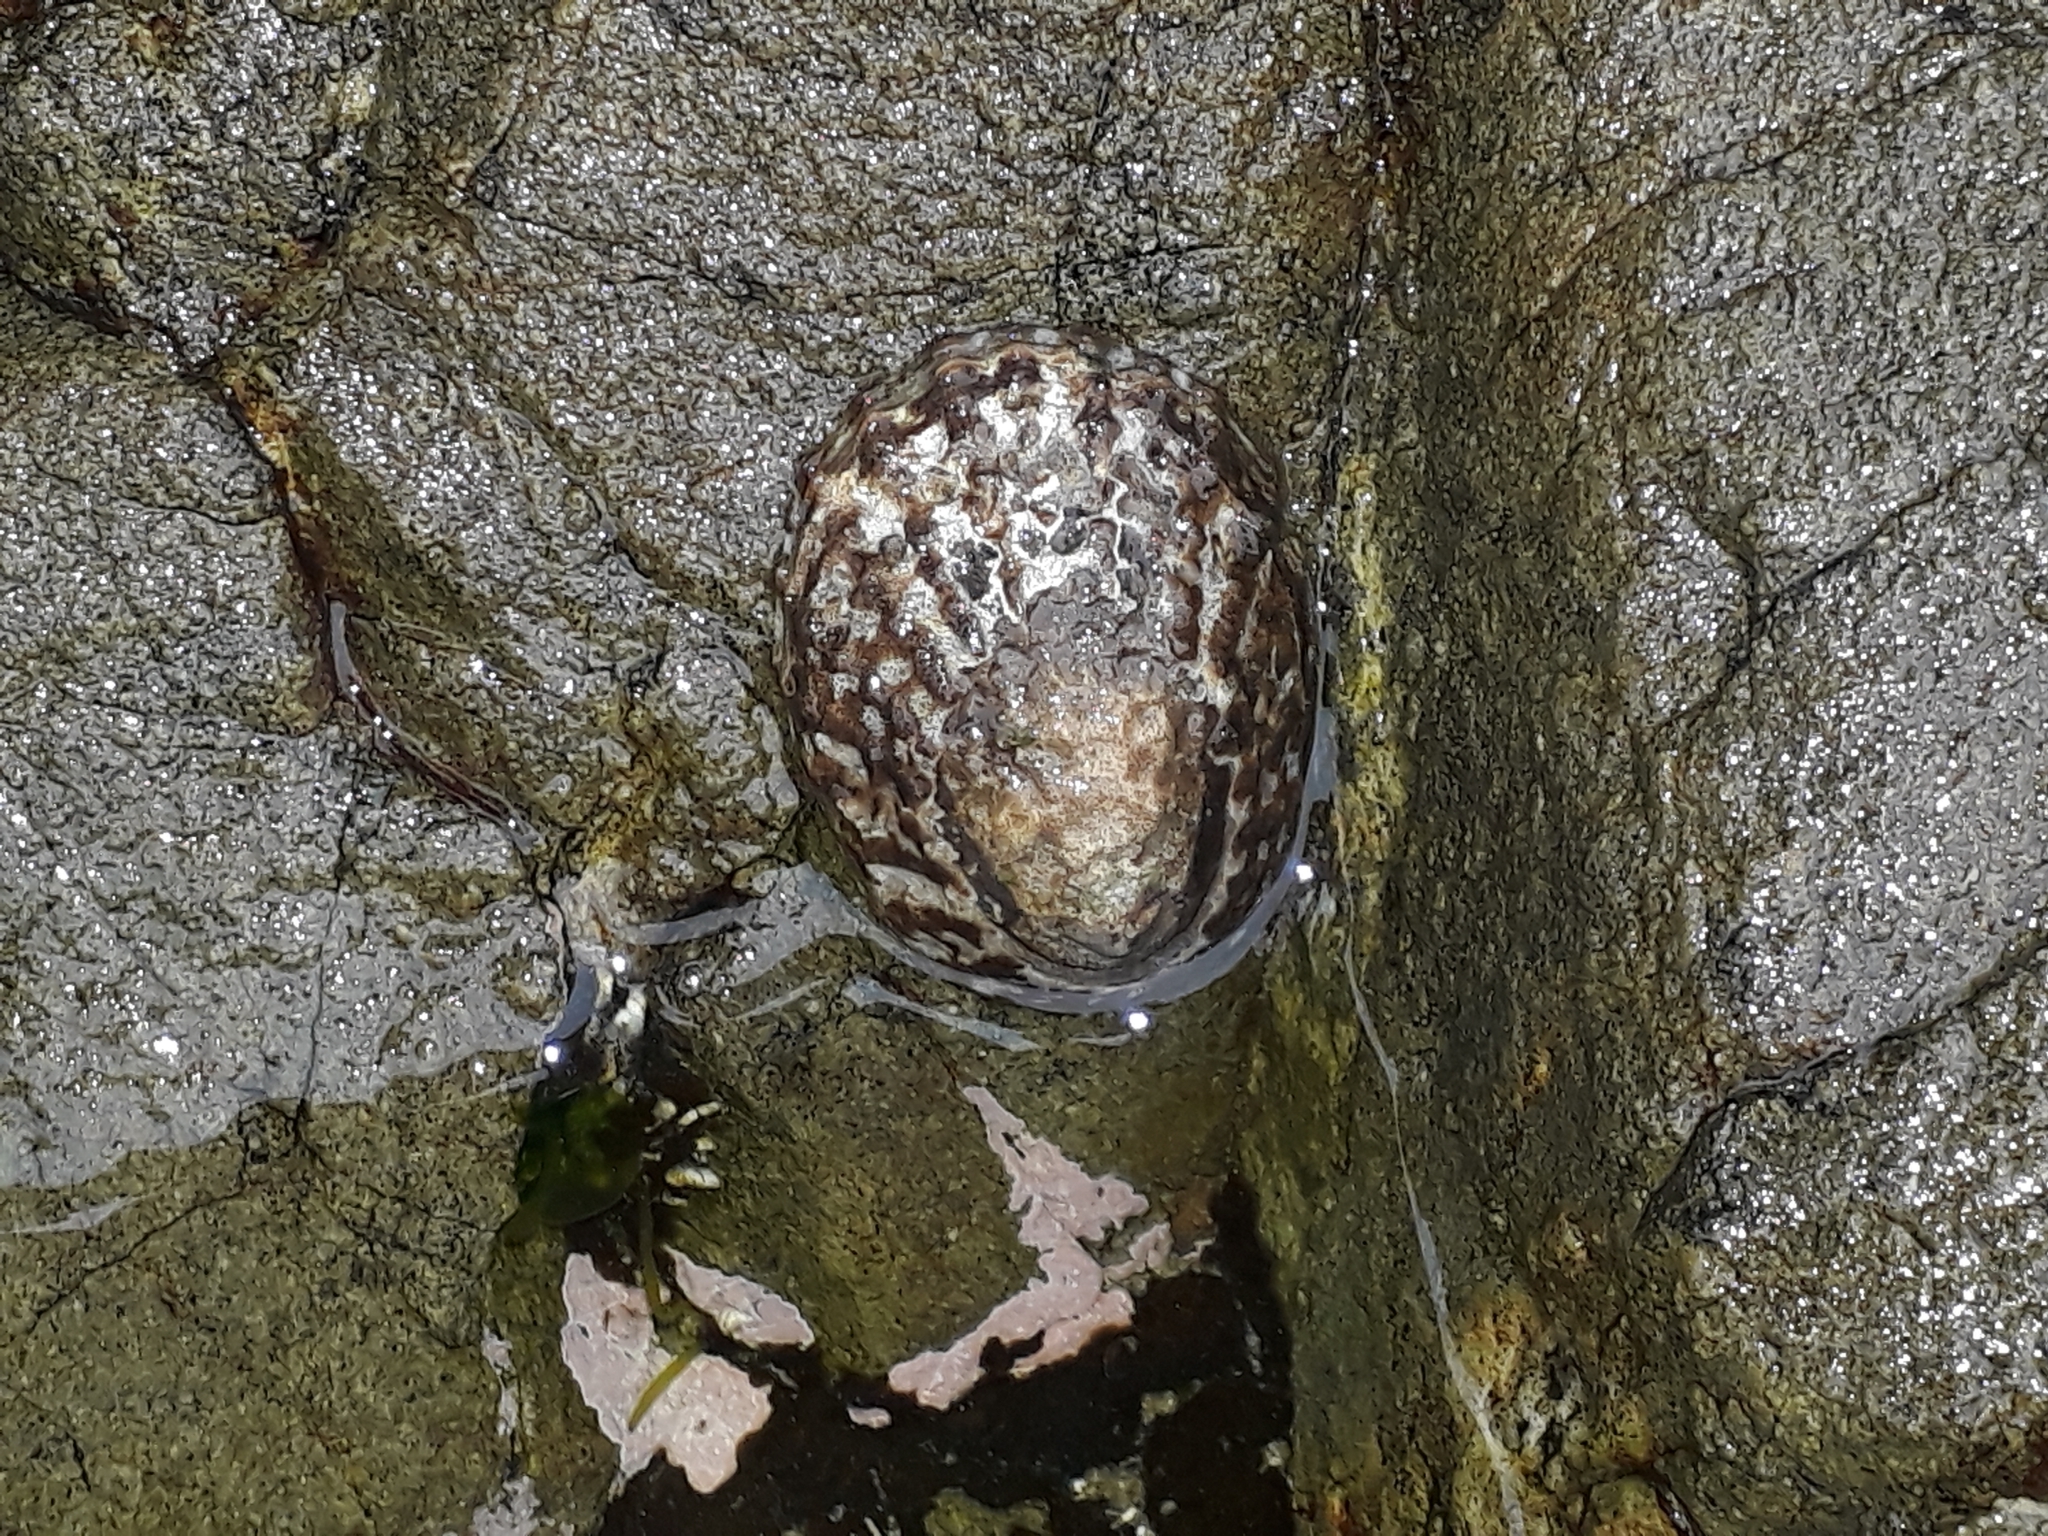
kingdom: Animalia
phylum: Mollusca
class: Gastropoda
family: Nacellidae
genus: Cellana
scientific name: Cellana denticulata
